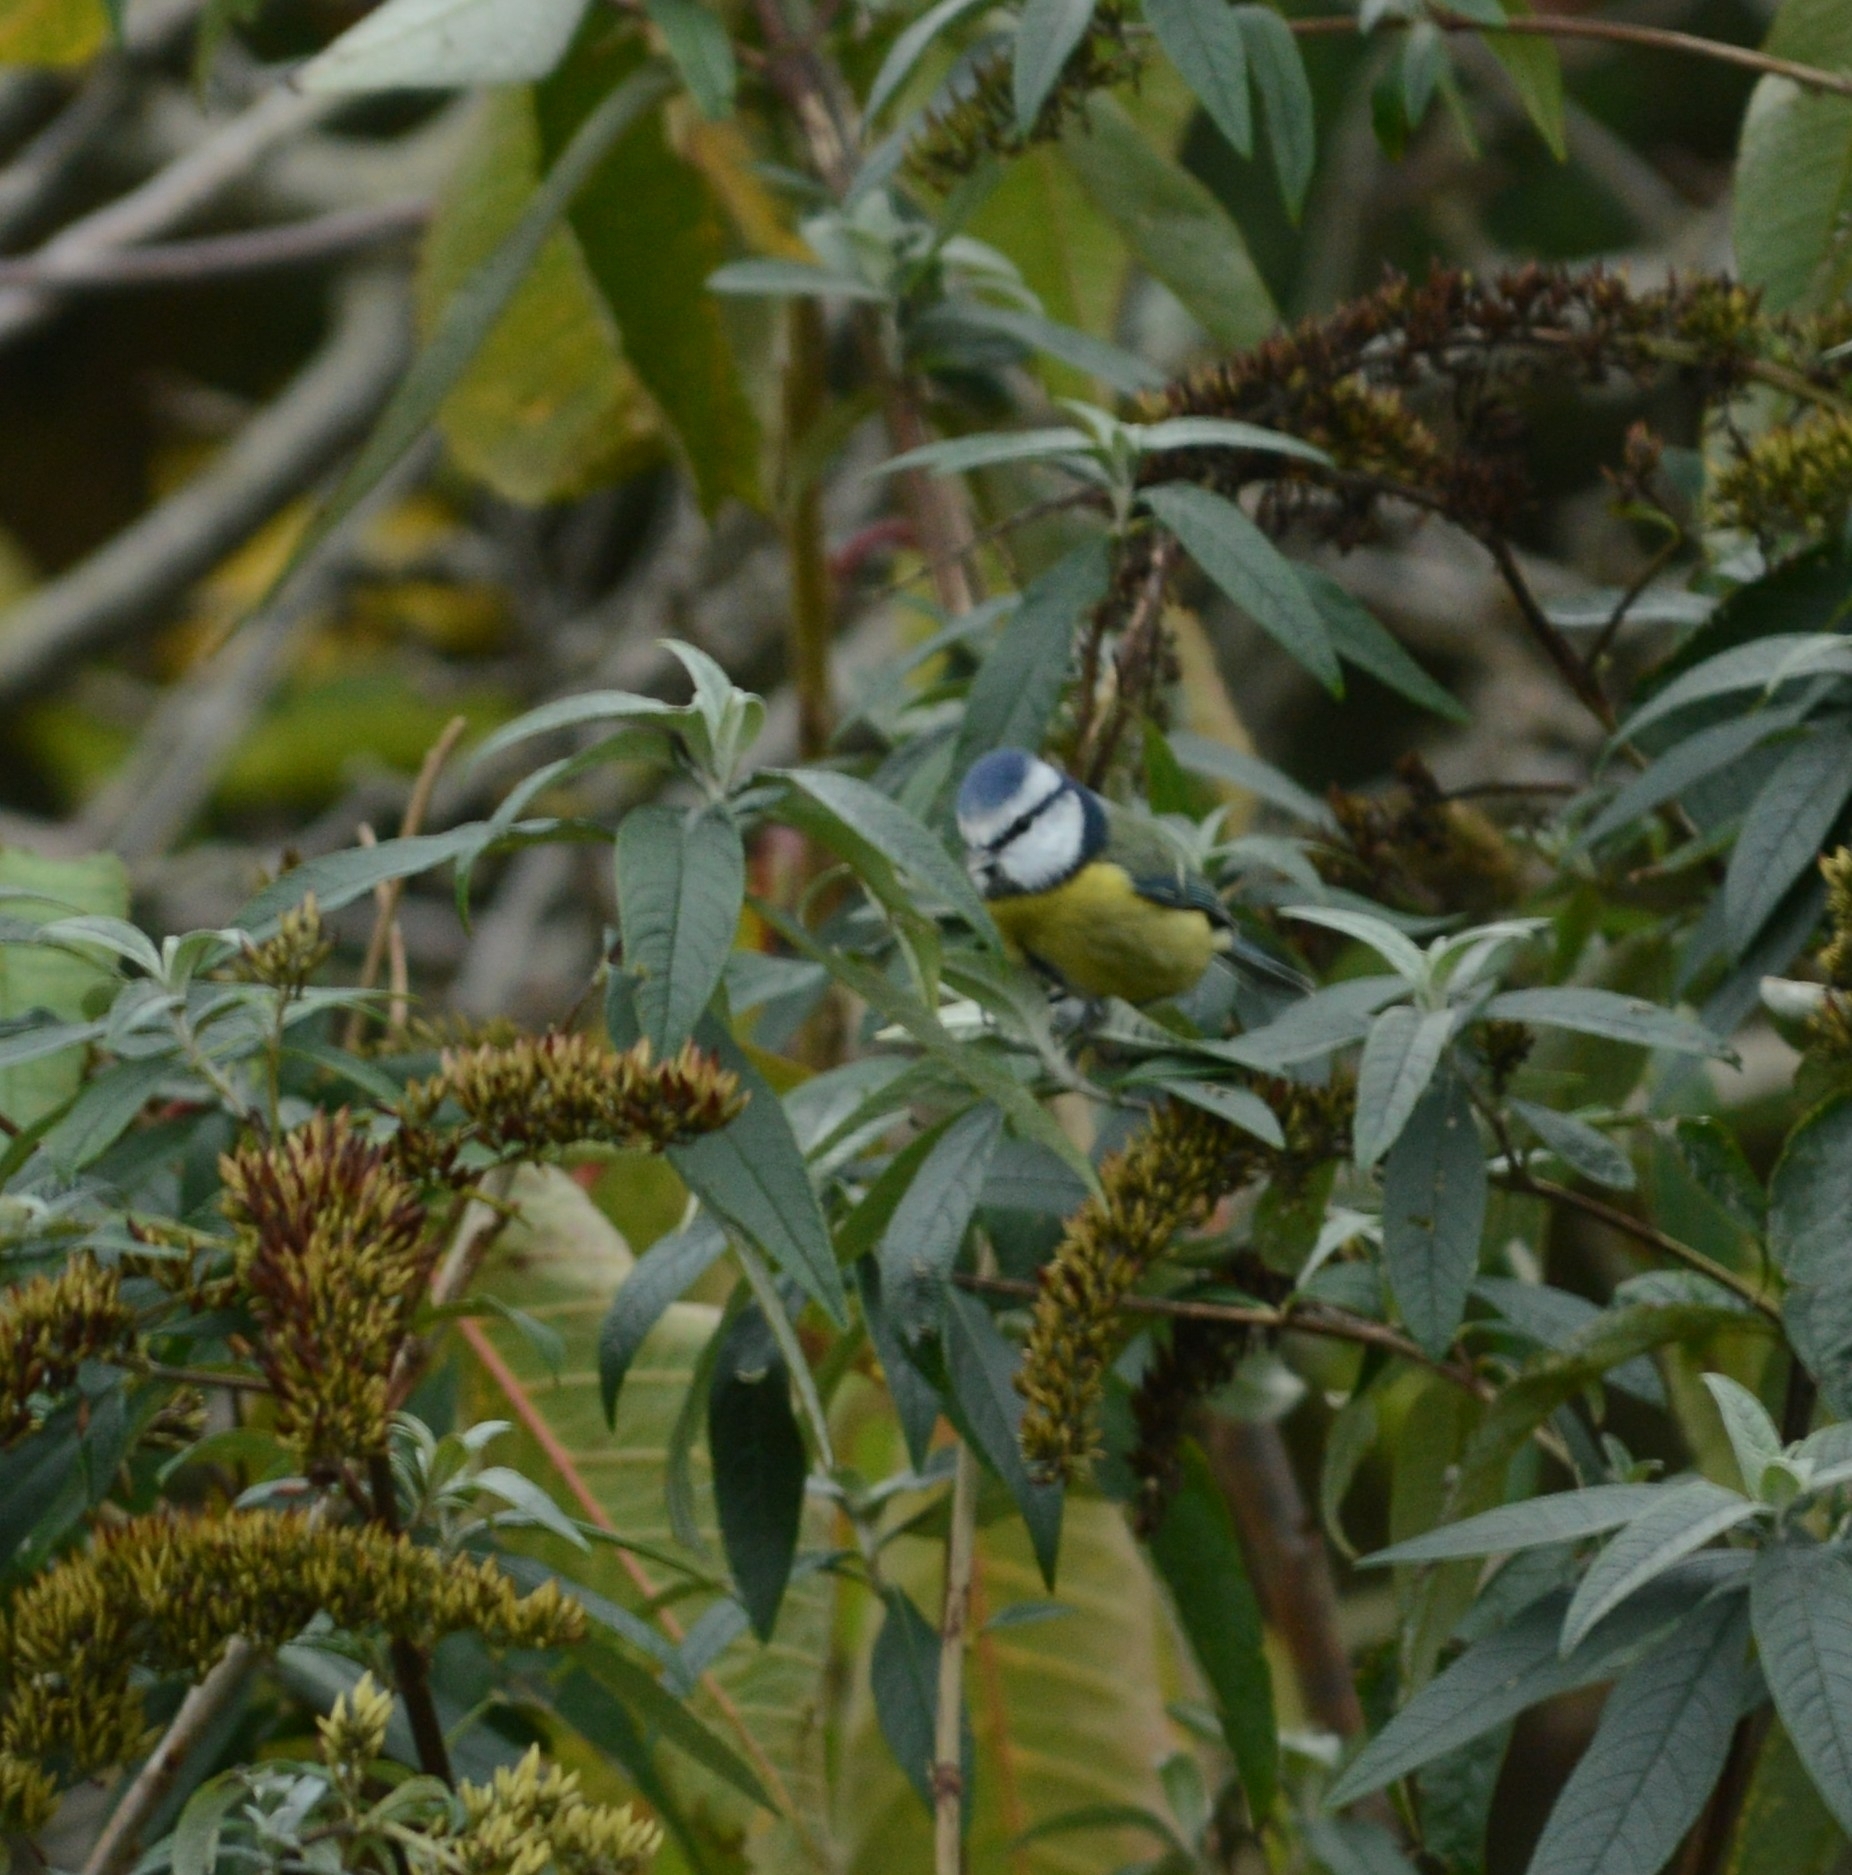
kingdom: Animalia
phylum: Chordata
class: Aves
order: Passeriformes
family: Paridae
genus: Cyanistes
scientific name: Cyanistes caeruleus
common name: Eurasian blue tit
